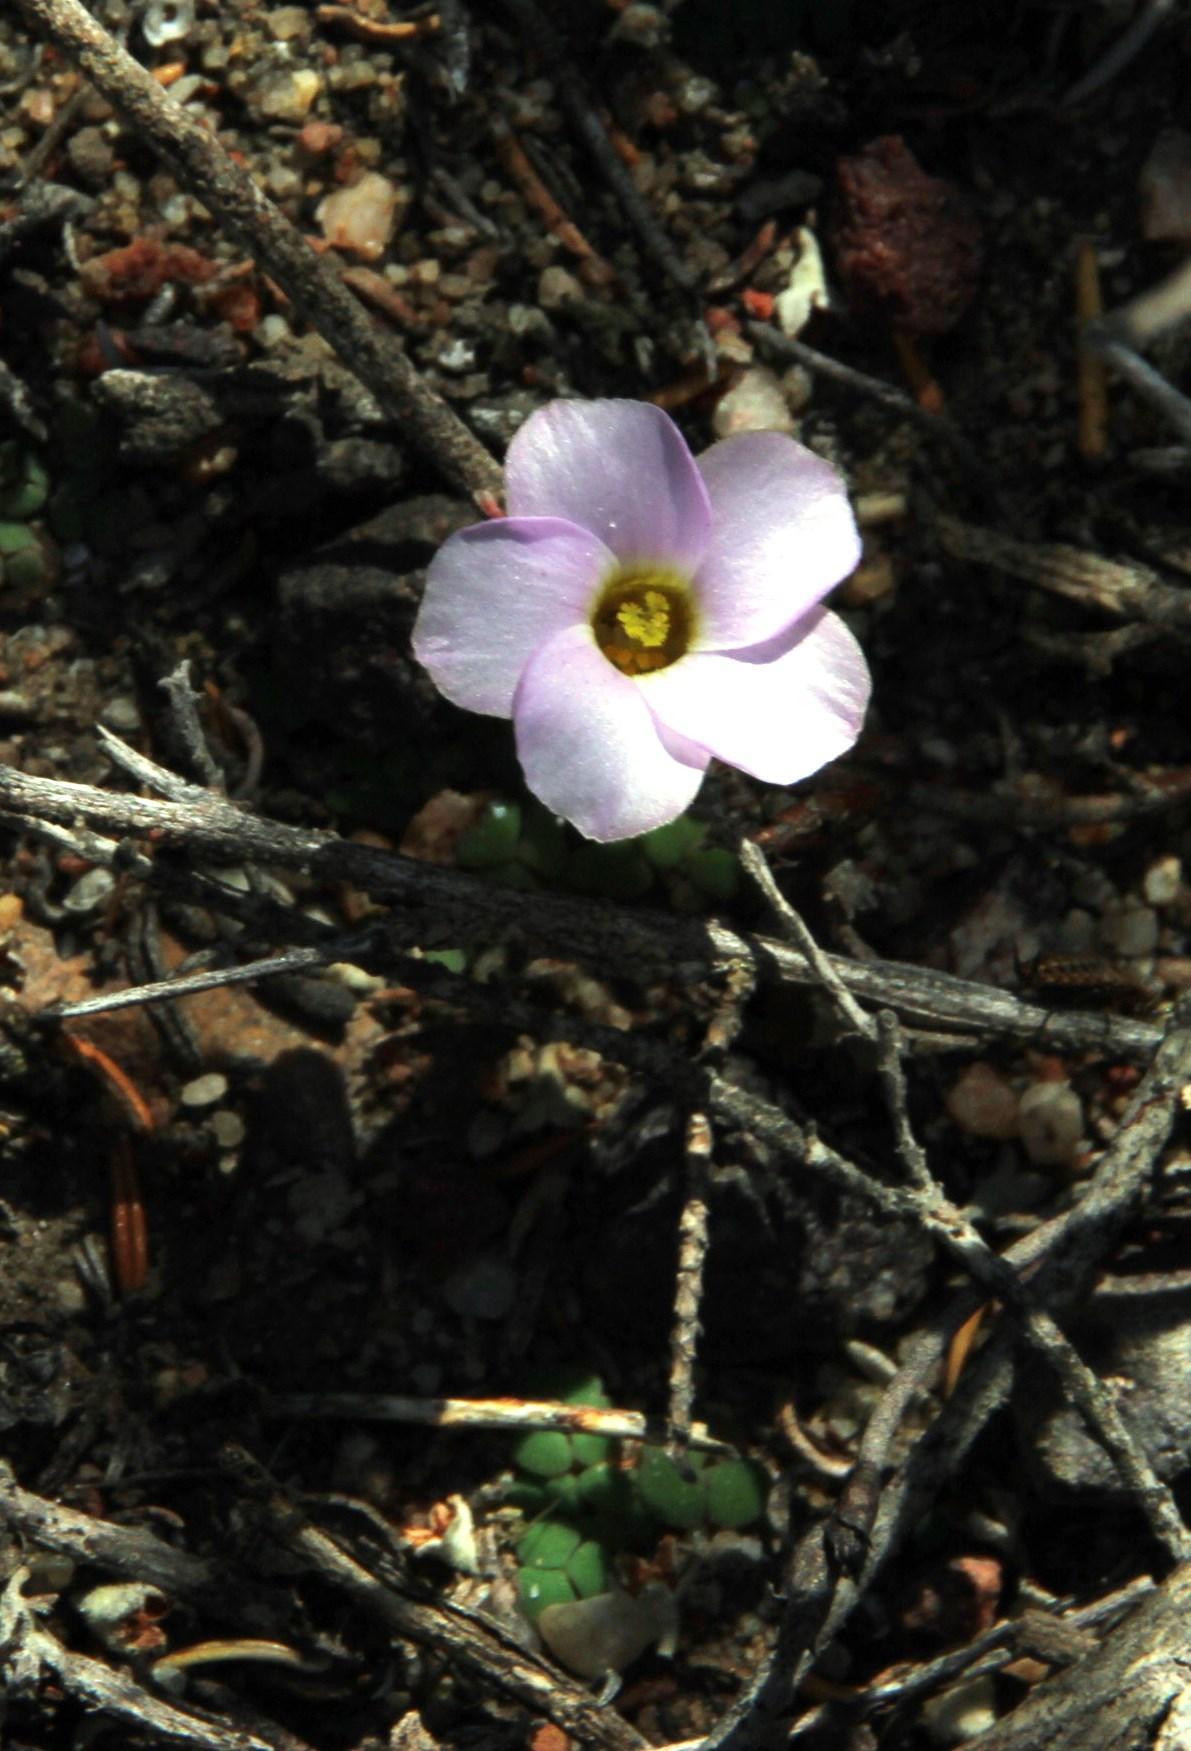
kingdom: Plantae
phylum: Tracheophyta
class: Magnoliopsida
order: Oxalidales
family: Oxalidaceae
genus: Oxalis
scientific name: Oxalis fergusoniae
